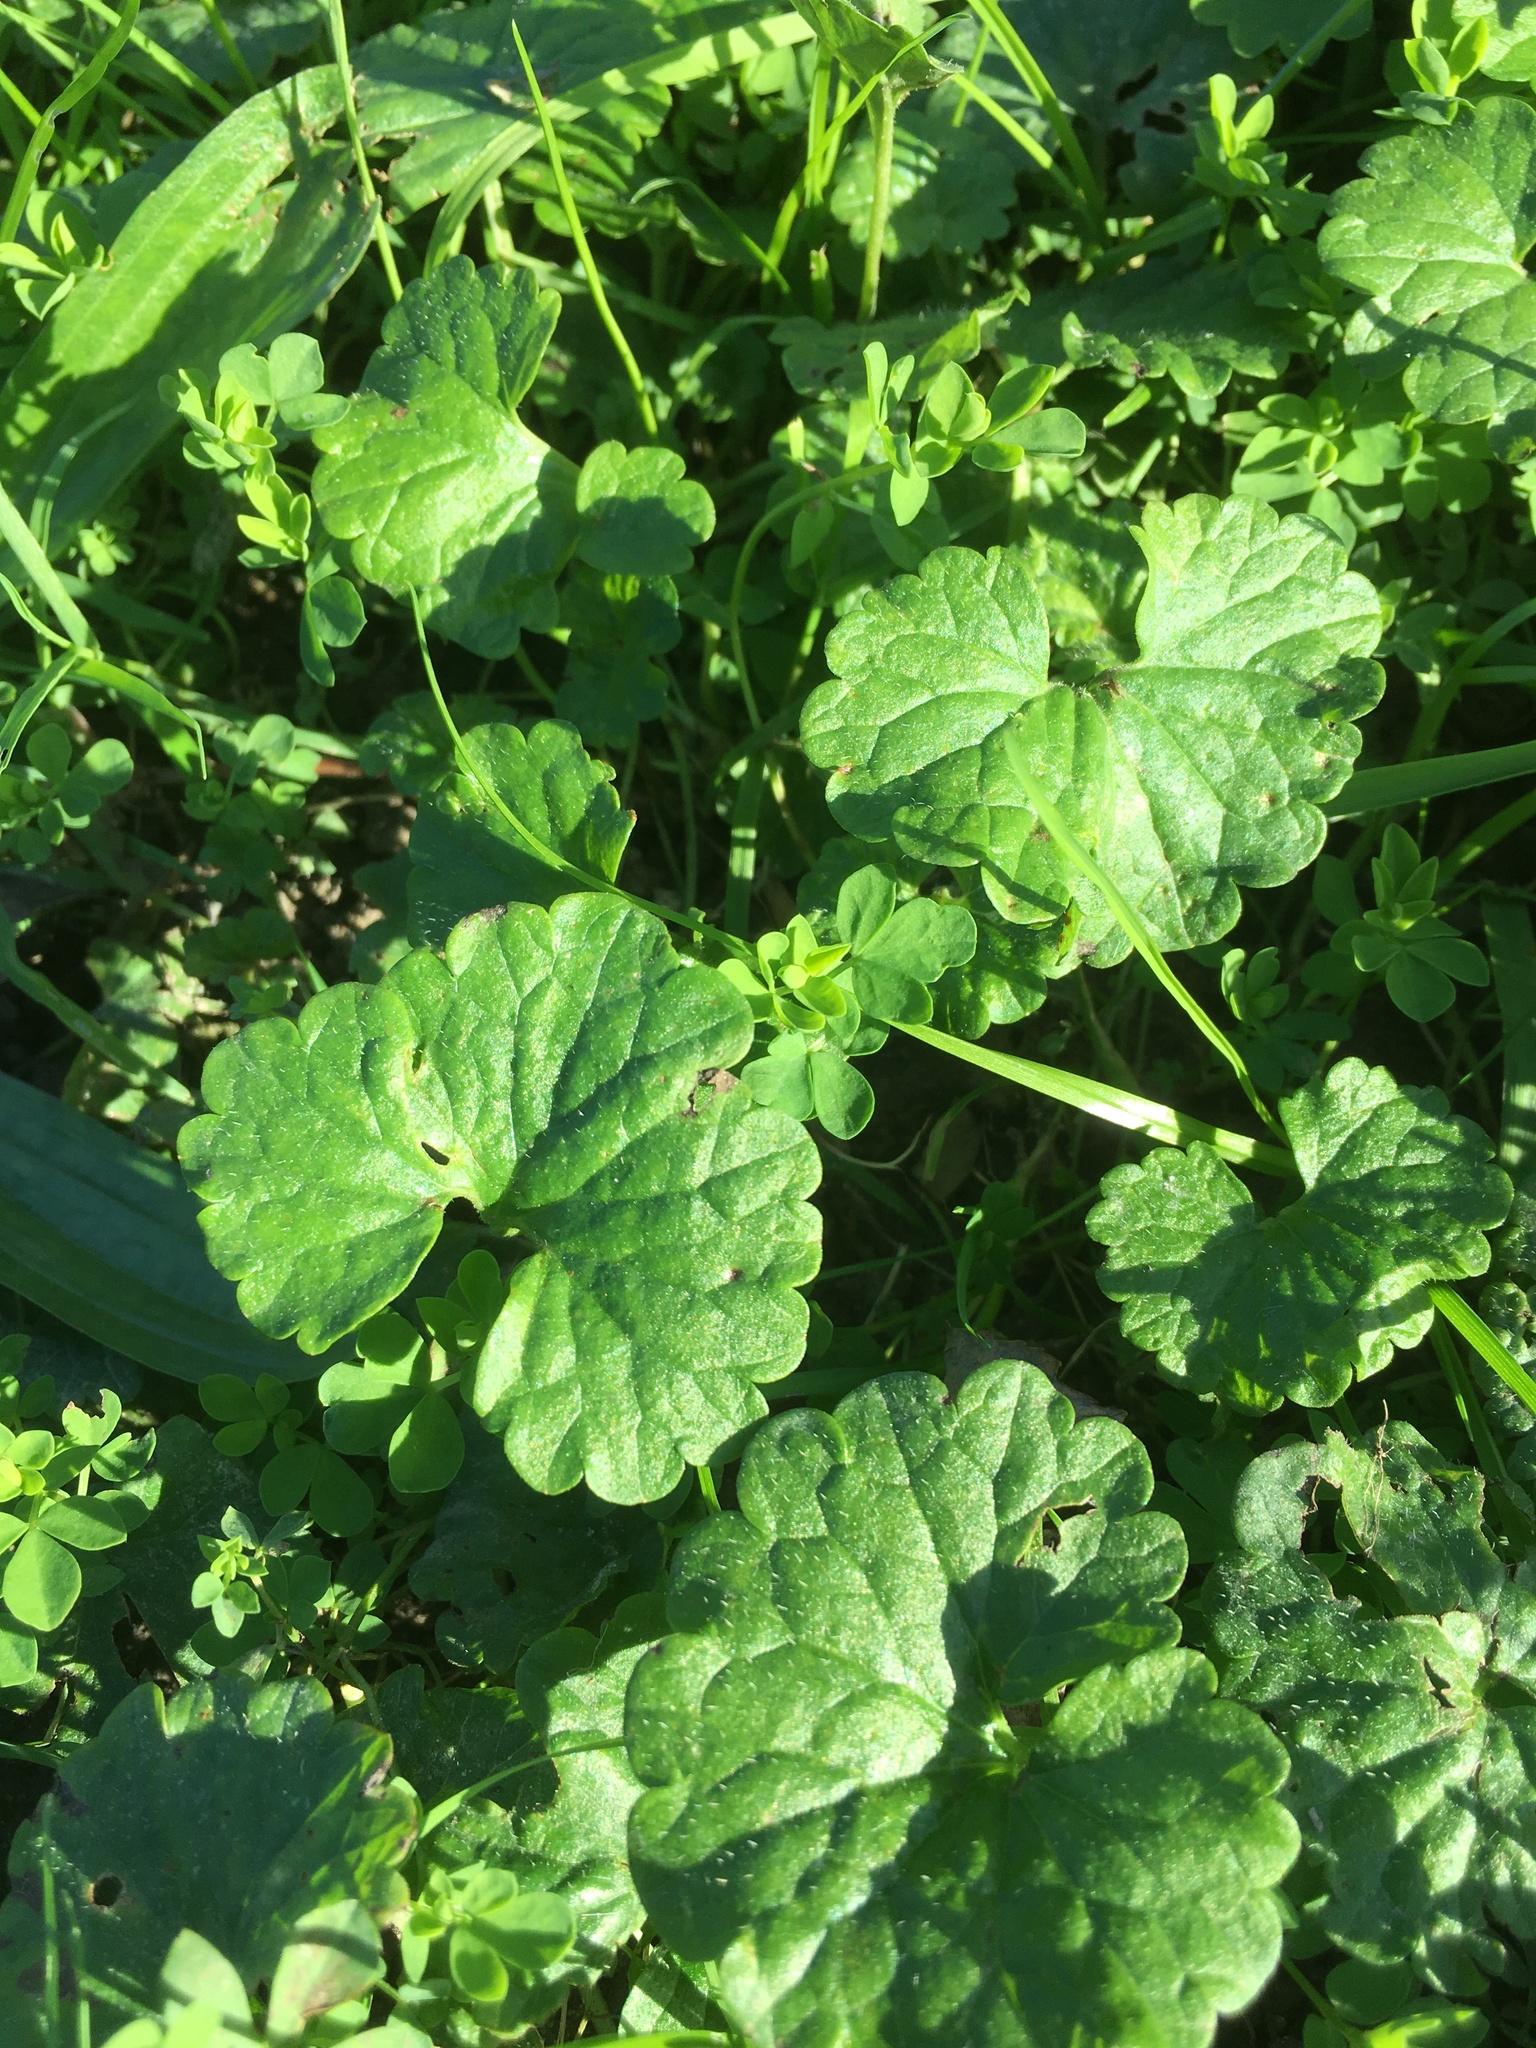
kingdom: Plantae
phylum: Tracheophyta
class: Magnoliopsida
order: Lamiales
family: Lamiaceae
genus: Glechoma
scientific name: Glechoma hederacea
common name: Ground ivy
